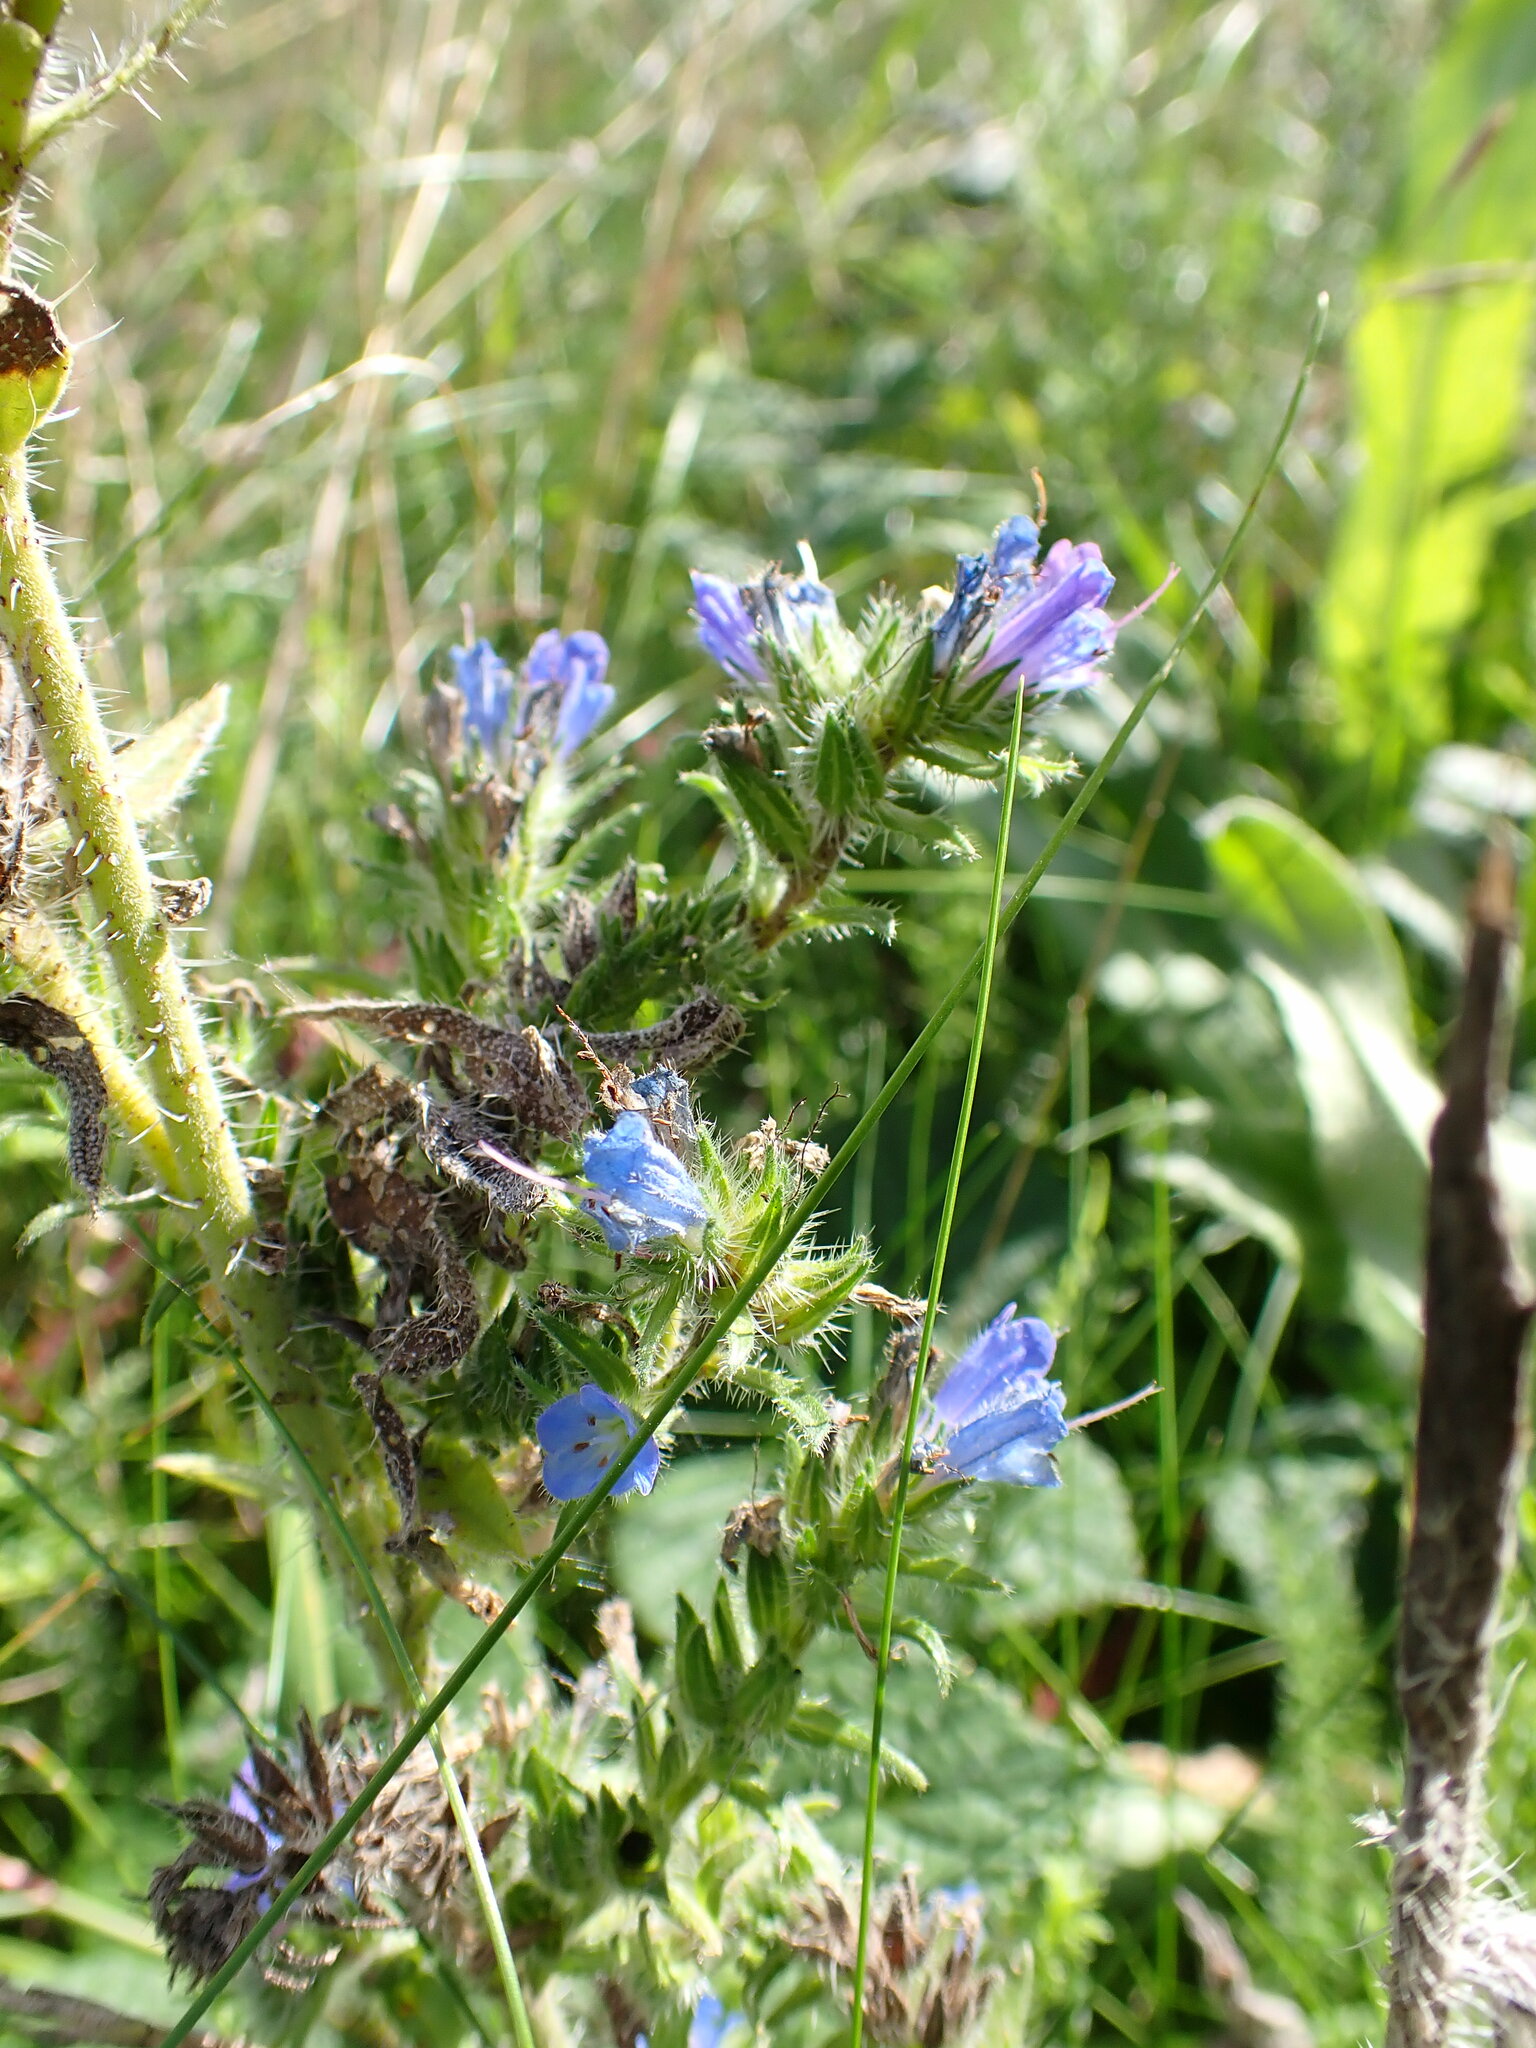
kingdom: Plantae
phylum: Tracheophyta
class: Magnoliopsida
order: Boraginales
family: Boraginaceae
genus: Echium
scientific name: Echium vulgare
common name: Common viper's bugloss
